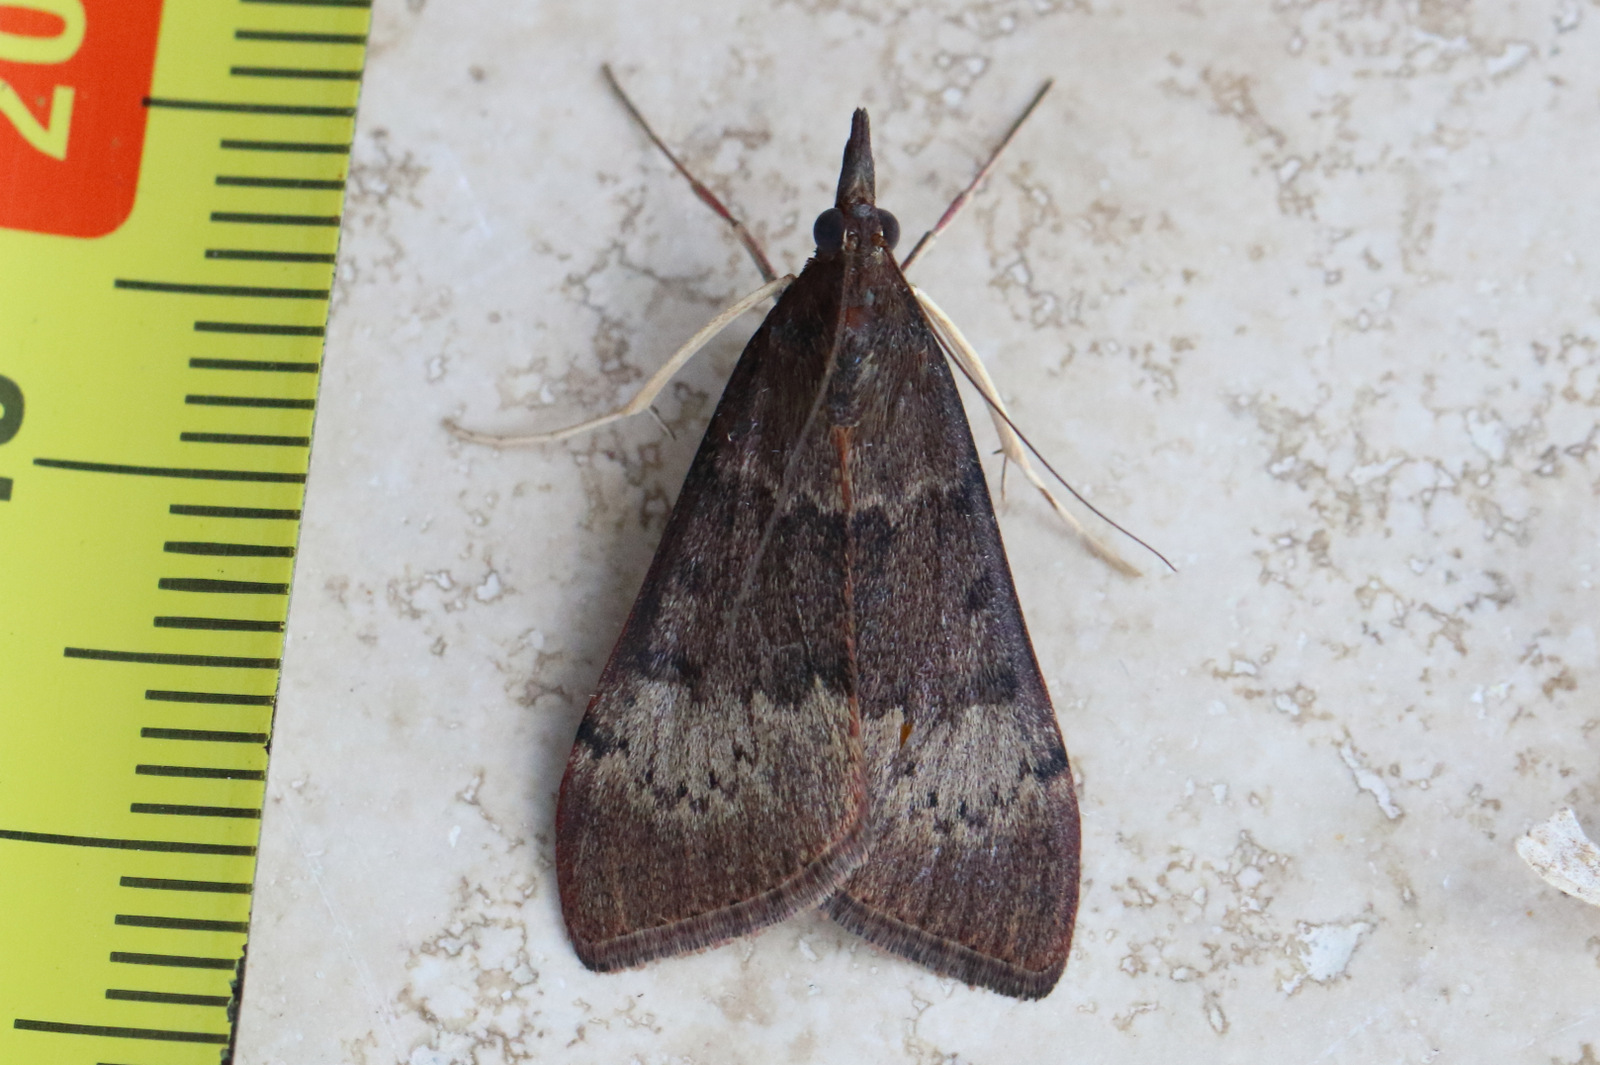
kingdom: Animalia
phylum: Arthropoda
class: Insecta
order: Lepidoptera
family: Crambidae
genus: Uresiphita
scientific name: Uresiphita ornithopteralis
